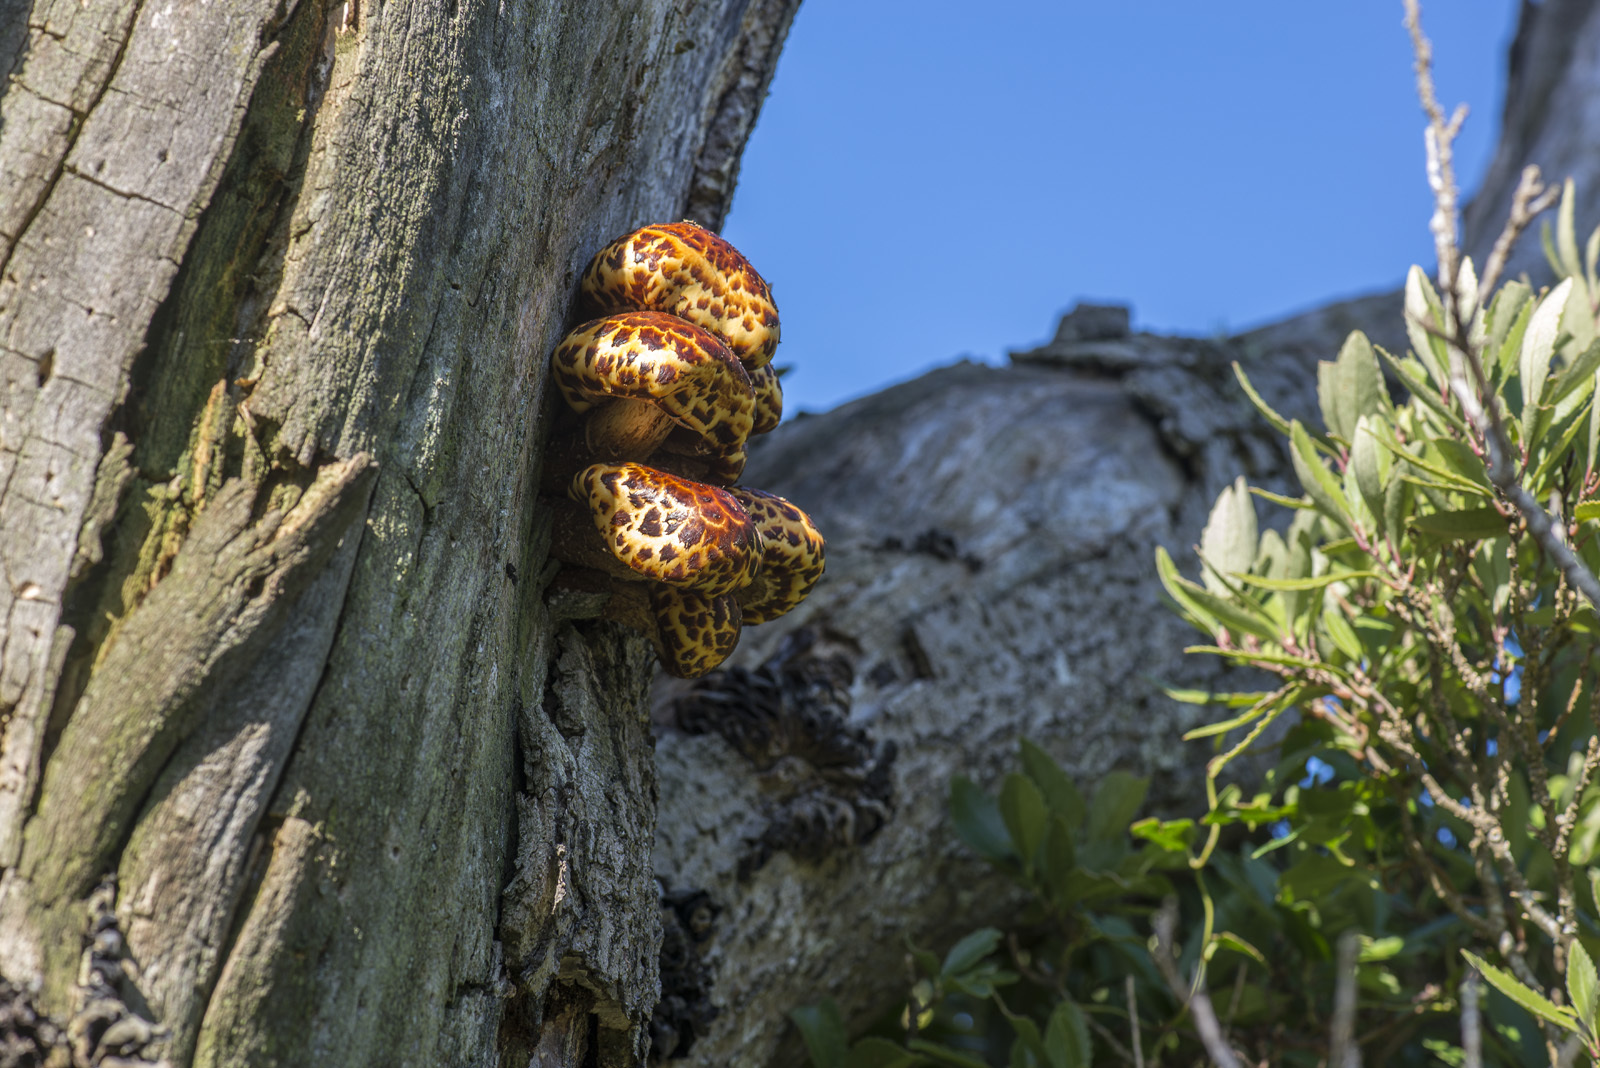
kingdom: Fungi
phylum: Basidiomycota
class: Agaricomycetes
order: Agaricales
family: Strophariaceae
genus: Pholiota
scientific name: Pholiota glutinosa
